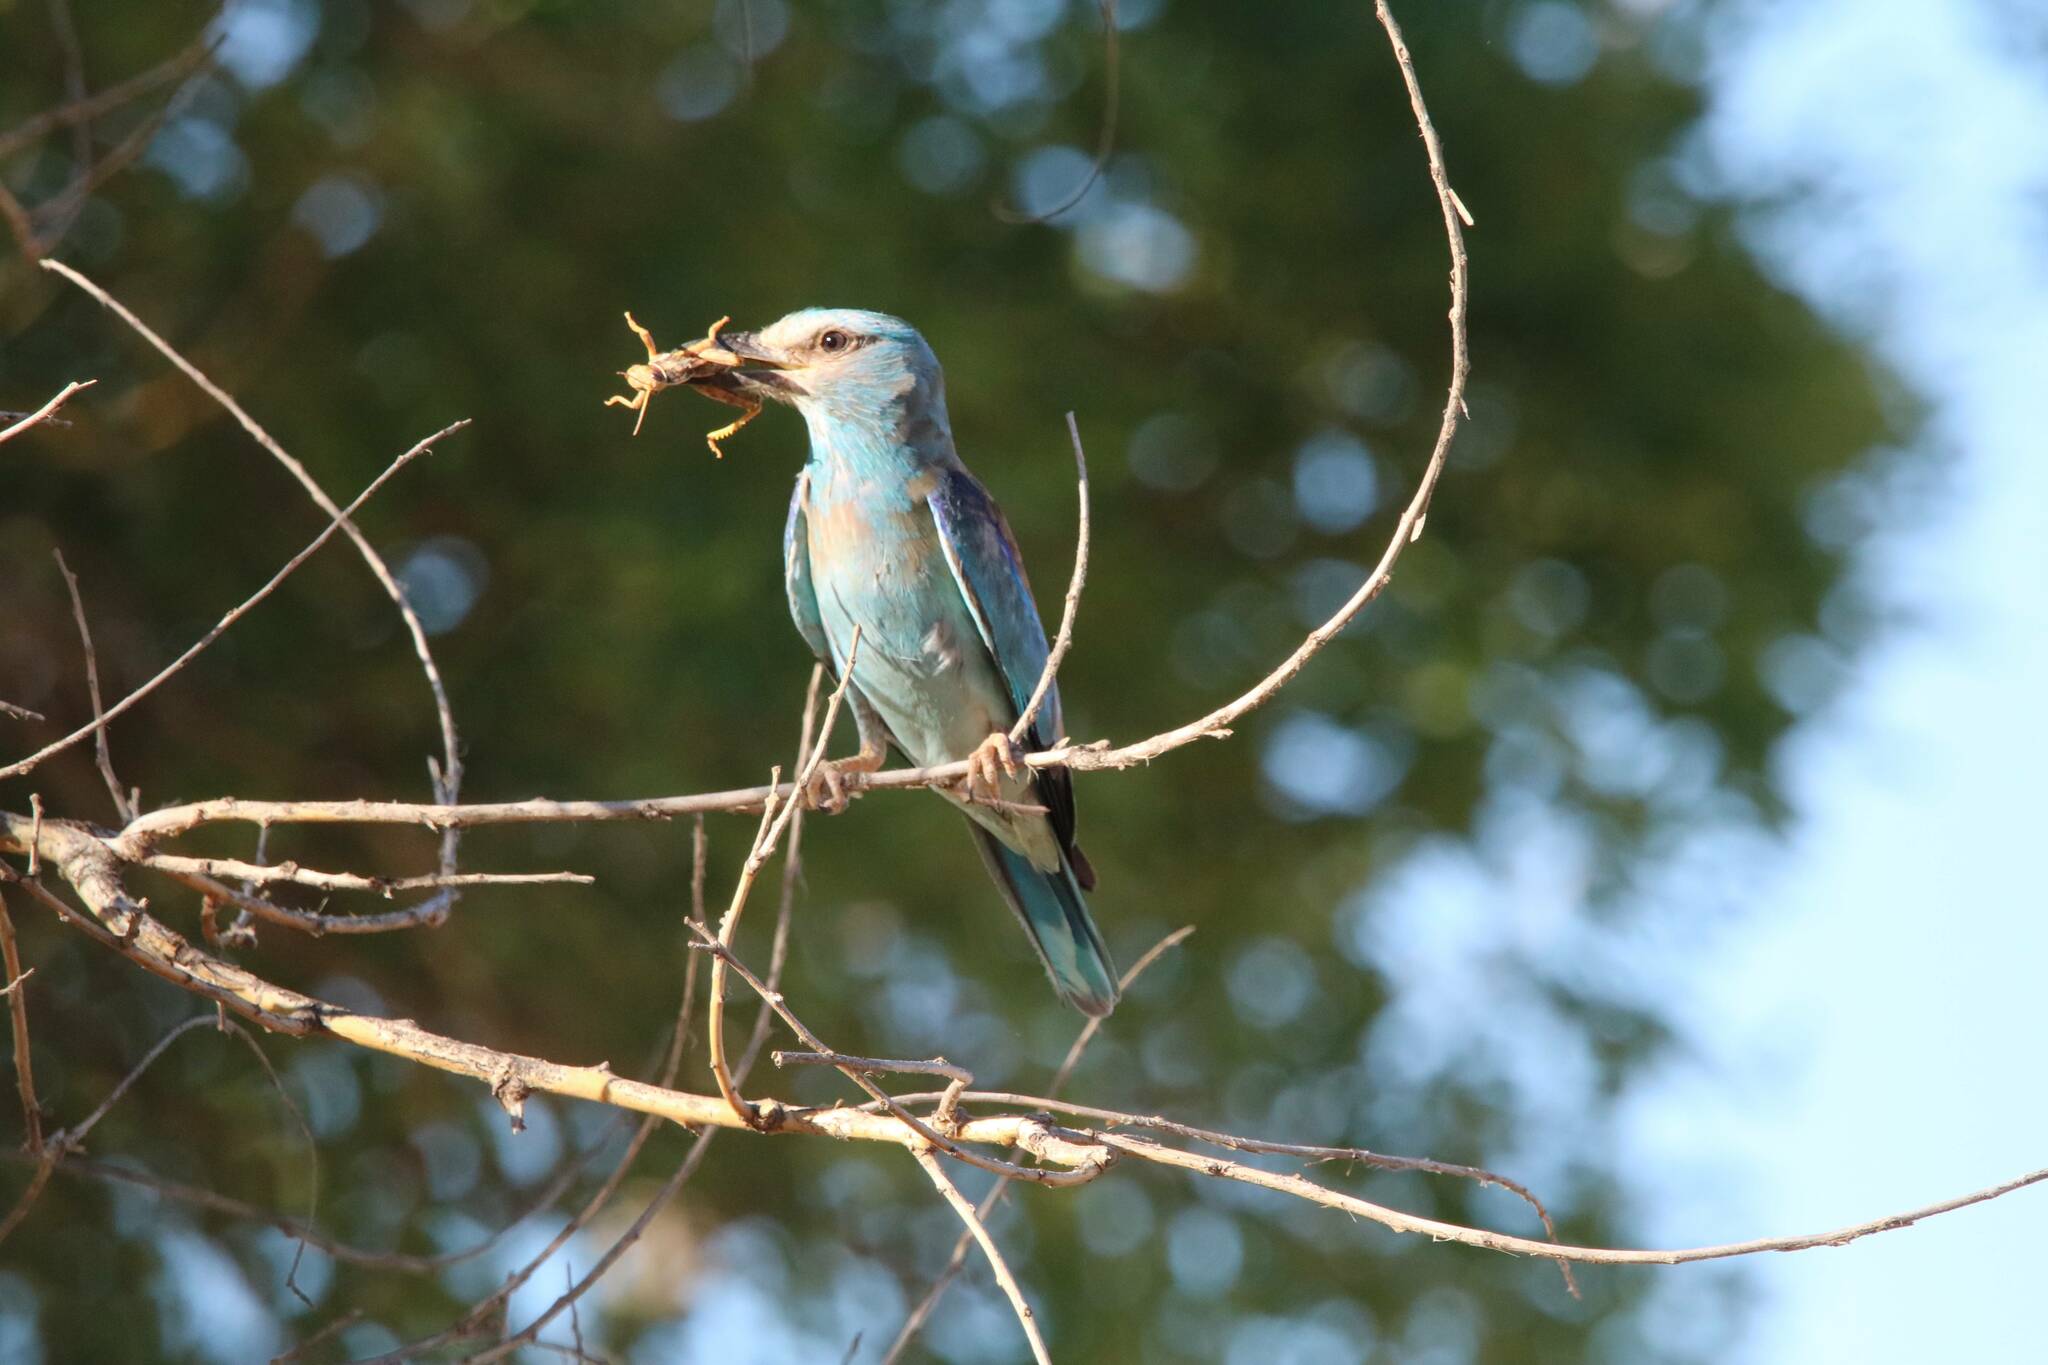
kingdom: Animalia
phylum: Chordata
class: Aves
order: Coraciiformes
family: Coraciidae
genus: Coracias
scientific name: Coracias garrulus
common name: European roller
